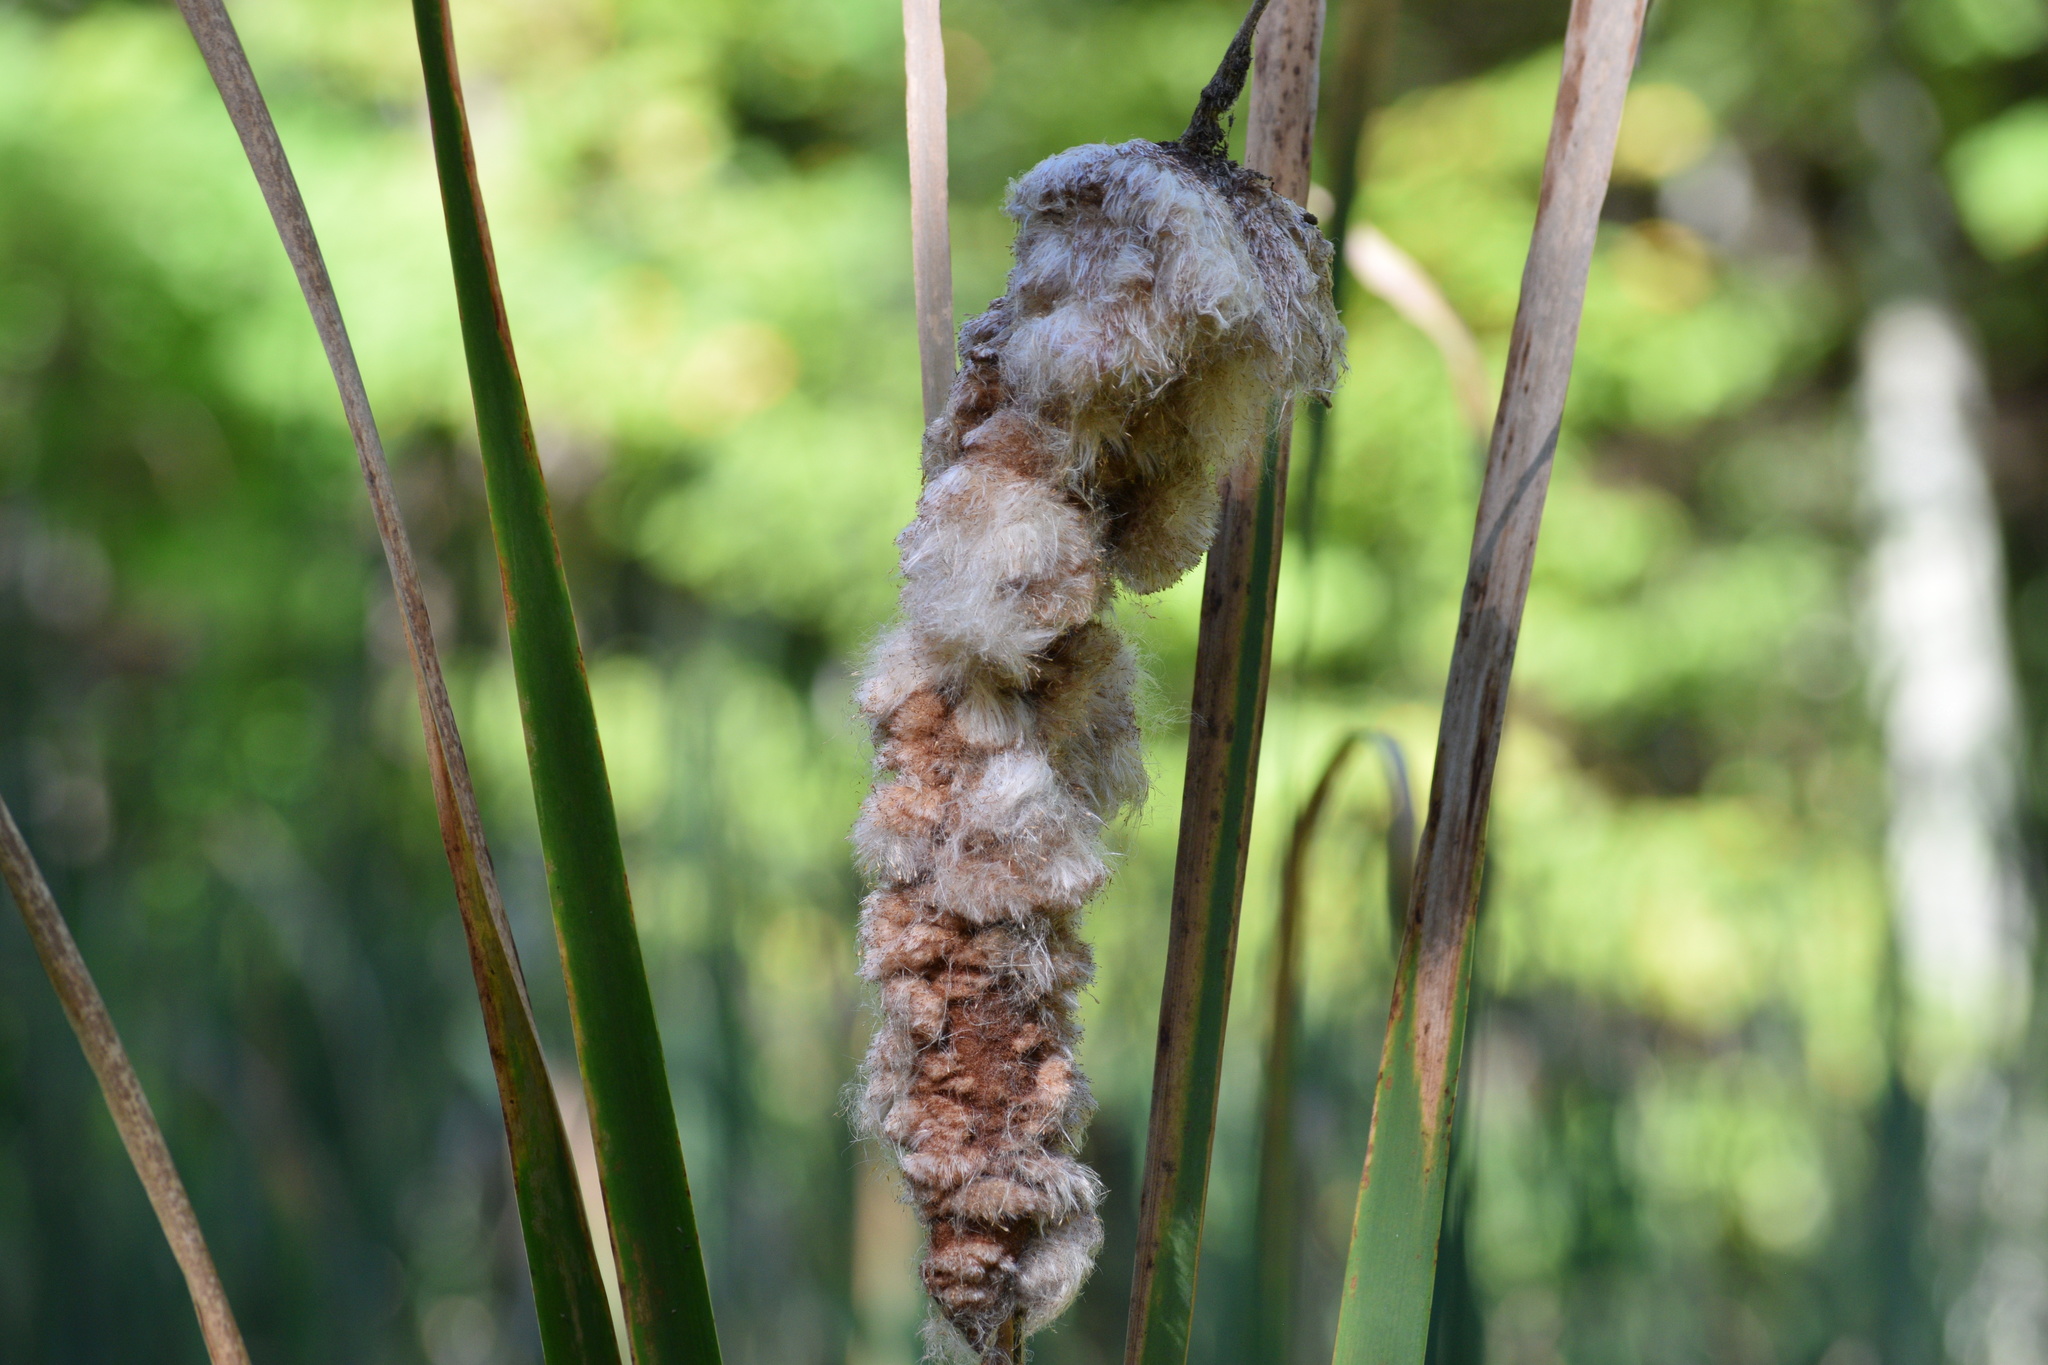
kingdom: Plantae
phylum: Tracheophyta
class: Liliopsida
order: Poales
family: Typhaceae
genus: Typha
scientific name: Typha latifolia
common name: Broadleaf cattail
